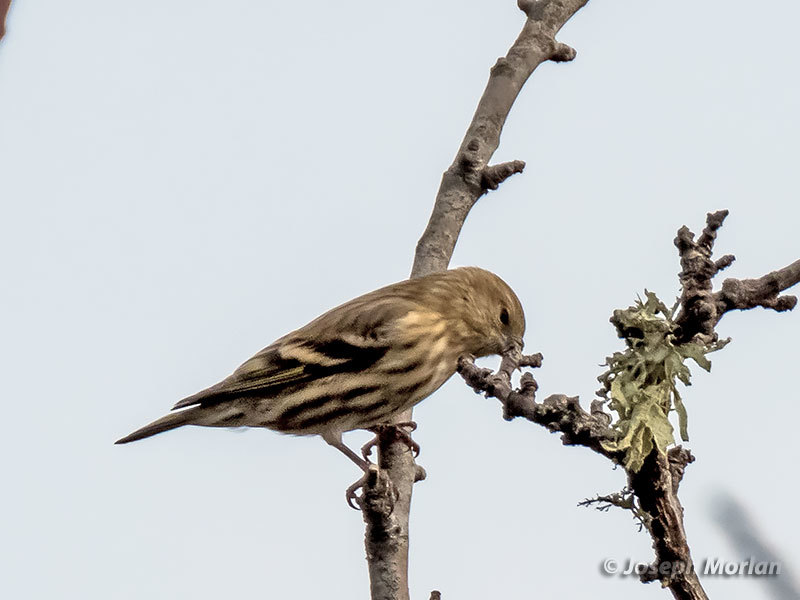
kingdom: Animalia
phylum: Chordata
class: Aves
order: Passeriformes
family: Fringillidae
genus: Spinus
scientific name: Spinus pinus
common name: Pine siskin
